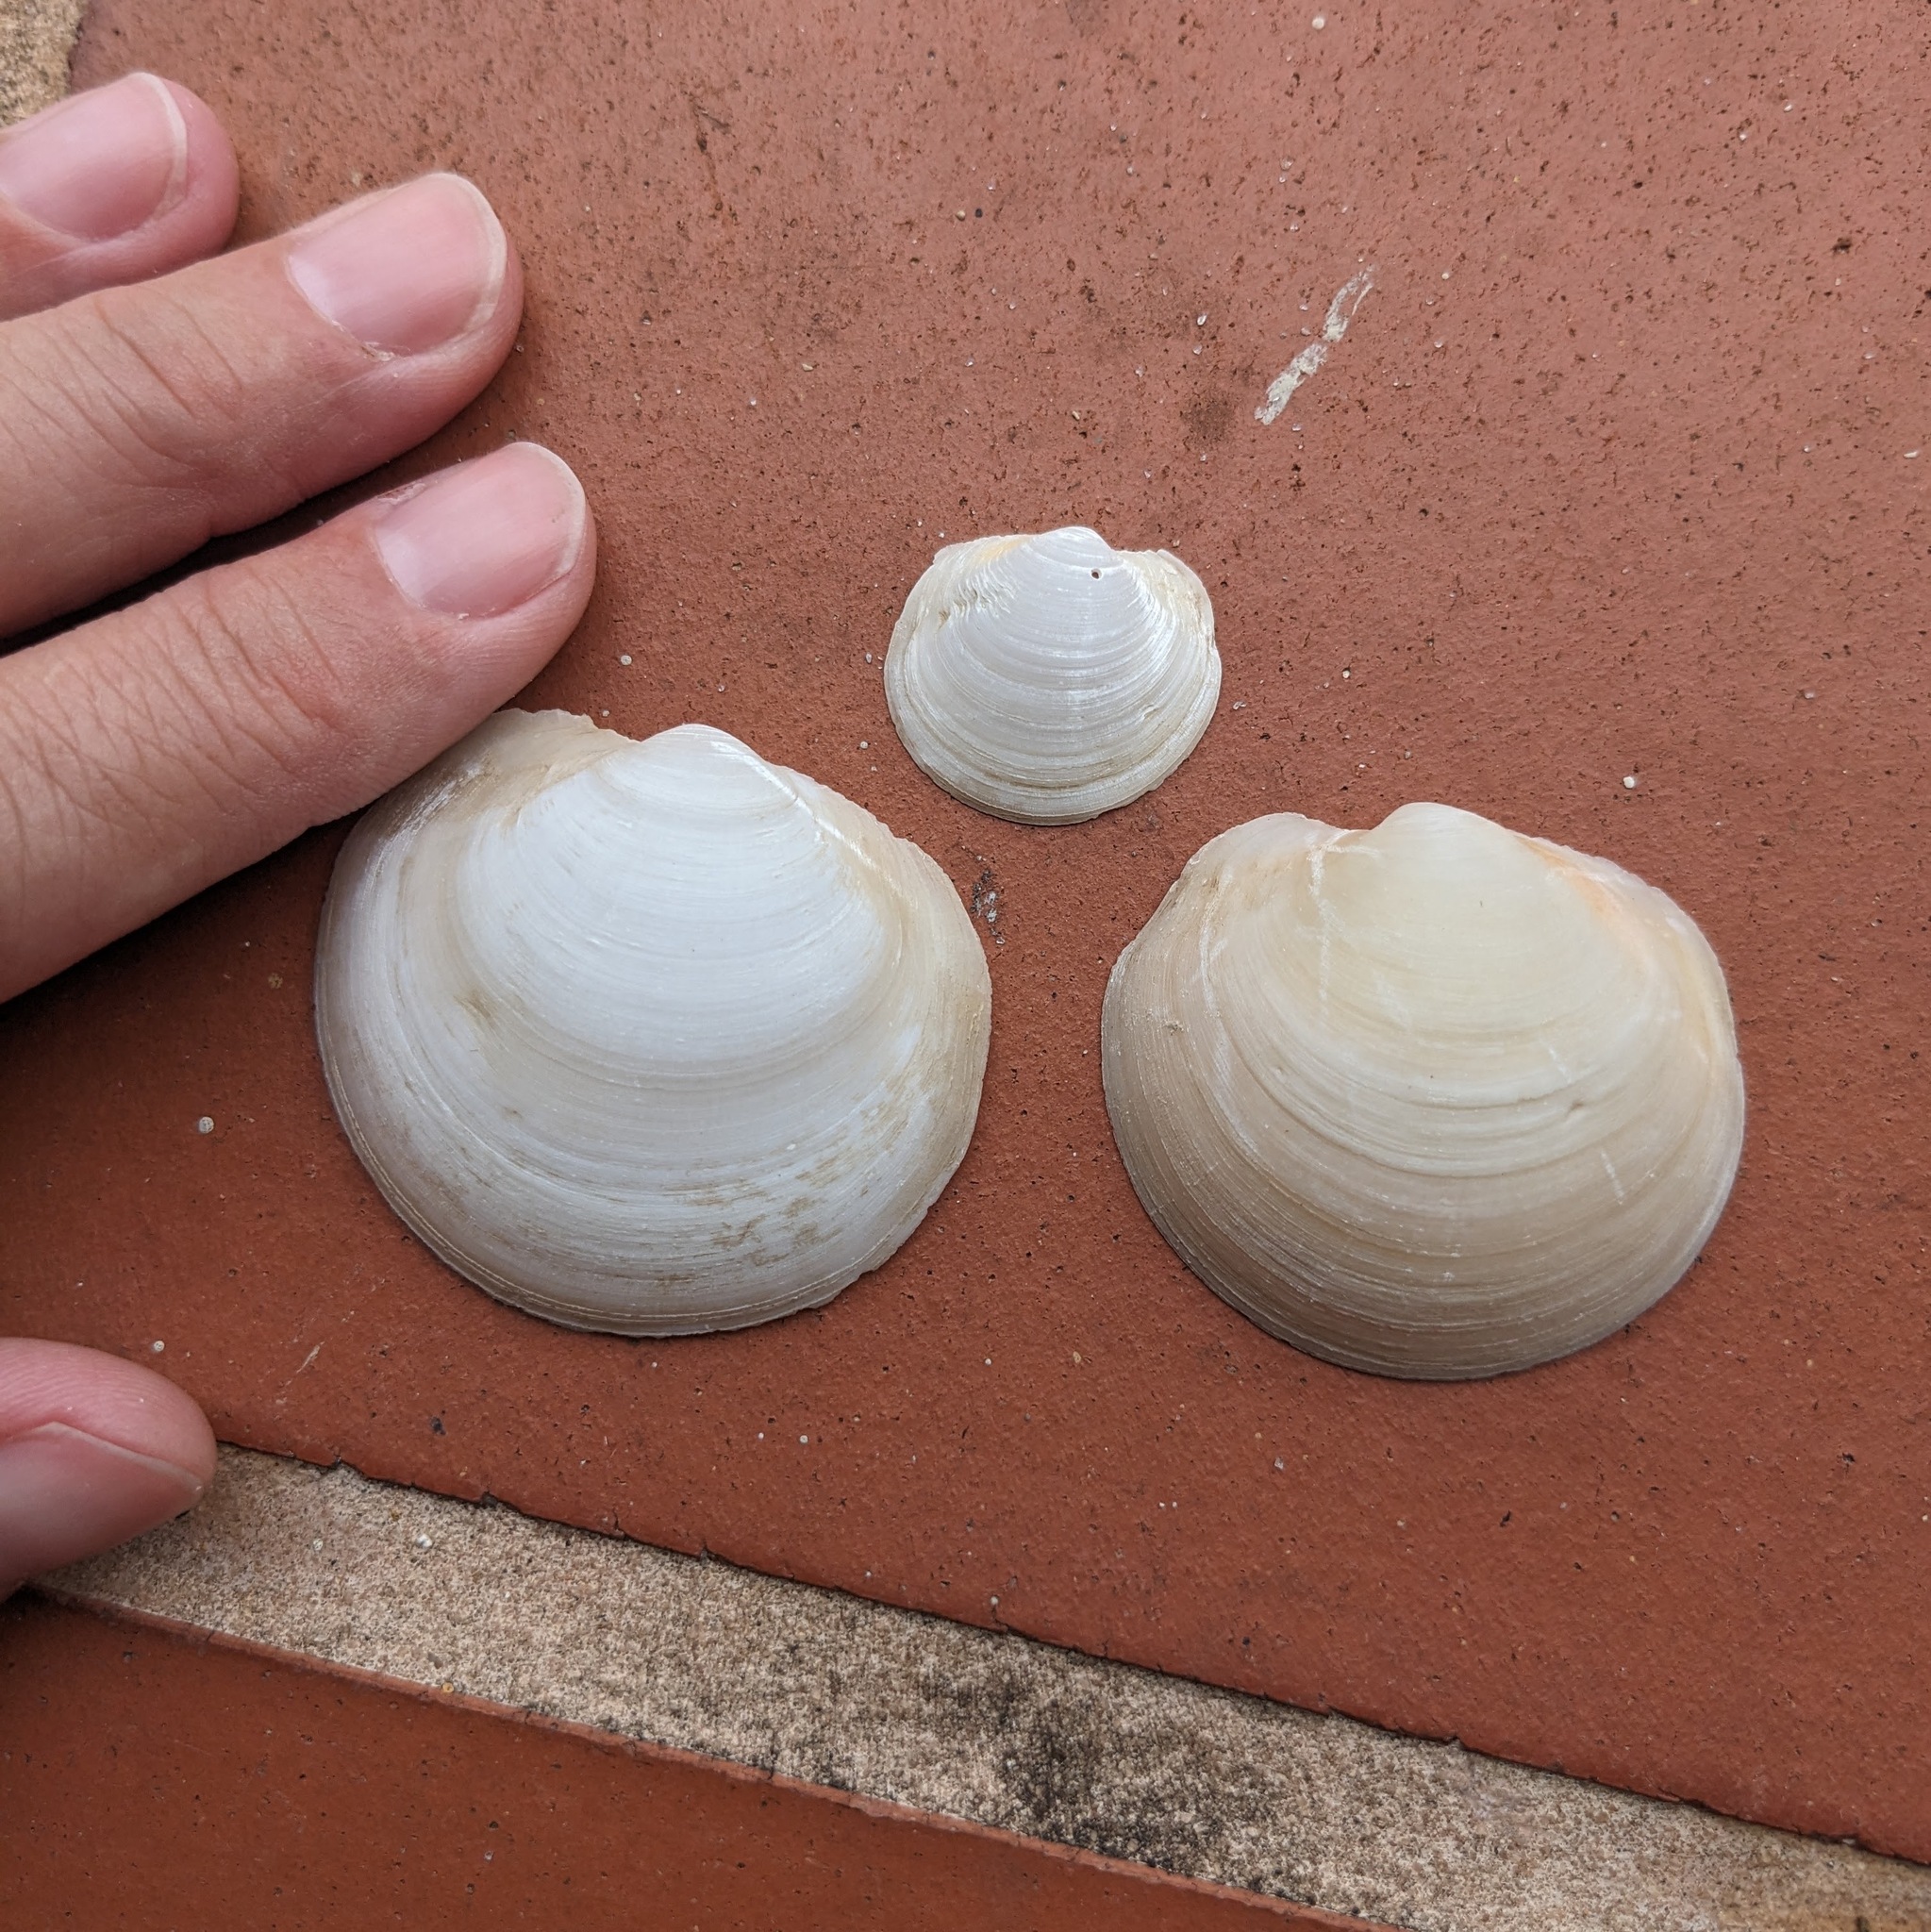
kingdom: Animalia
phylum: Mollusca
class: Bivalvia
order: Lucinida
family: Lucinidae
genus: Anodontia
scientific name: Anodontia alba
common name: Buttercup lucine
